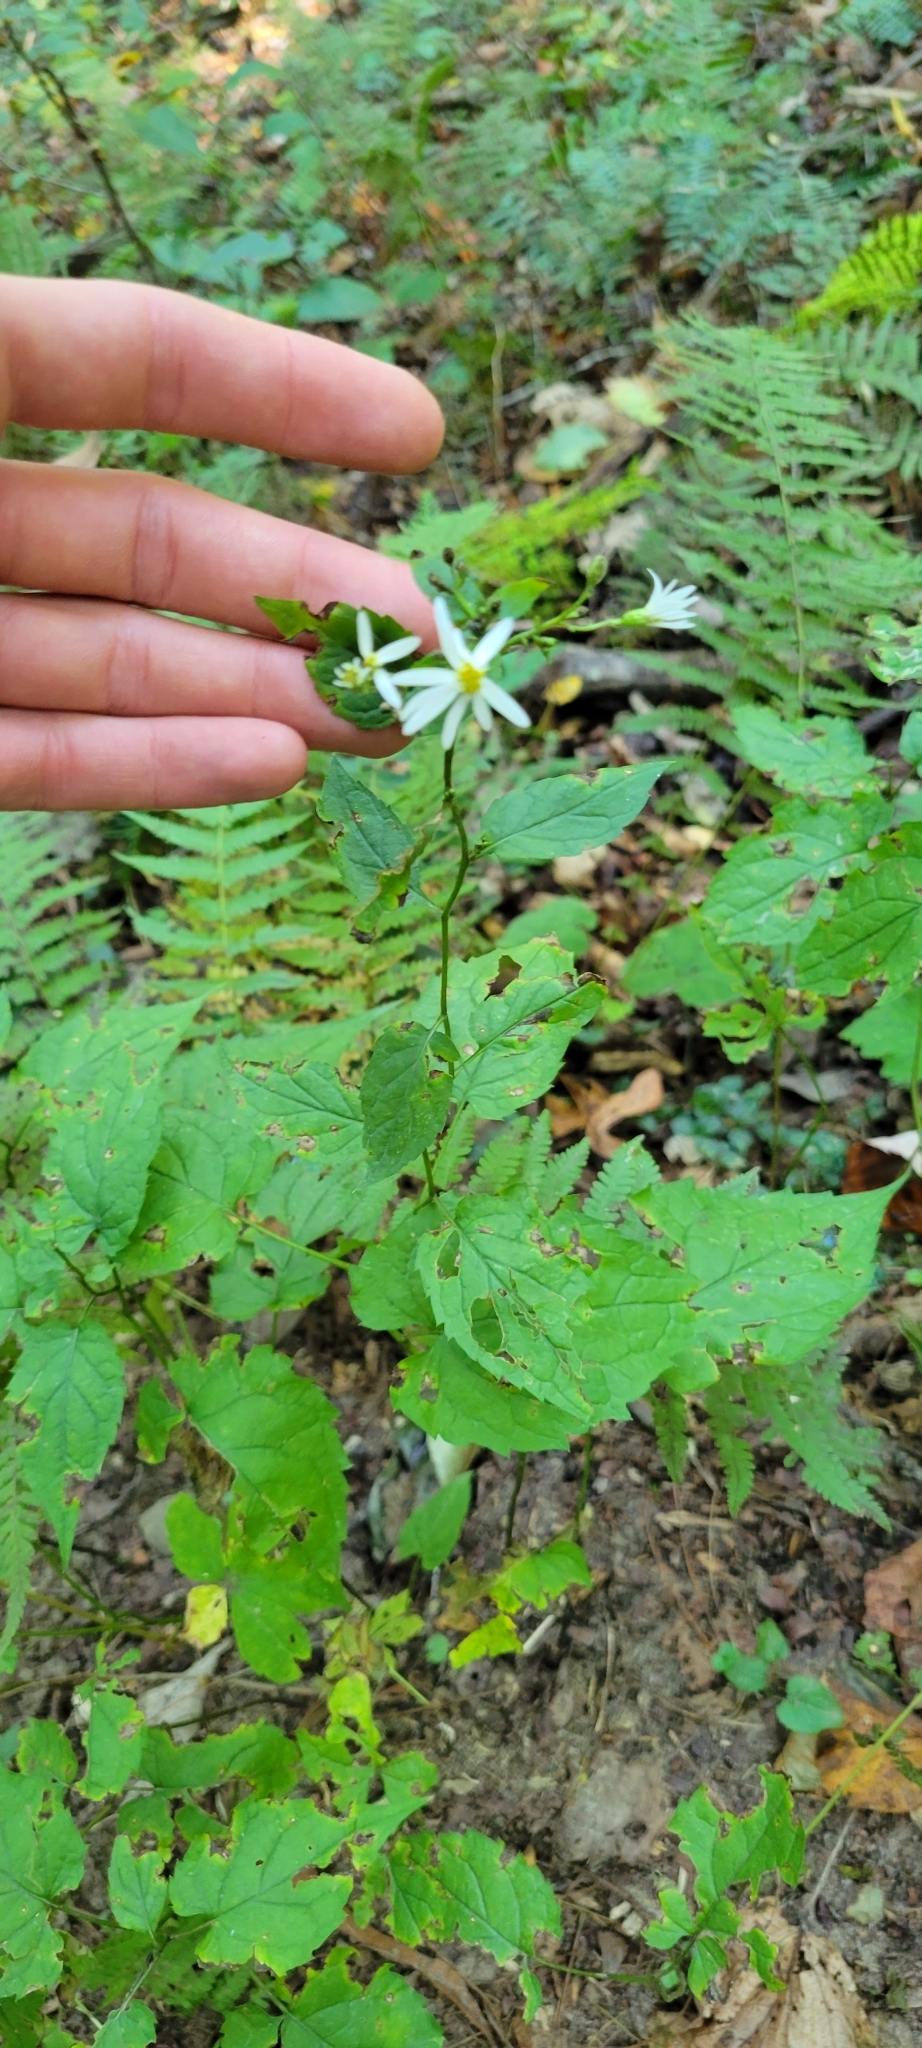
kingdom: Plantae
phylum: Tracheophyta
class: Magnoliopsida
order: Asterales
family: Asteraceae
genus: Eurybia
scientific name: Eurybia divaricata
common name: White wood aster
